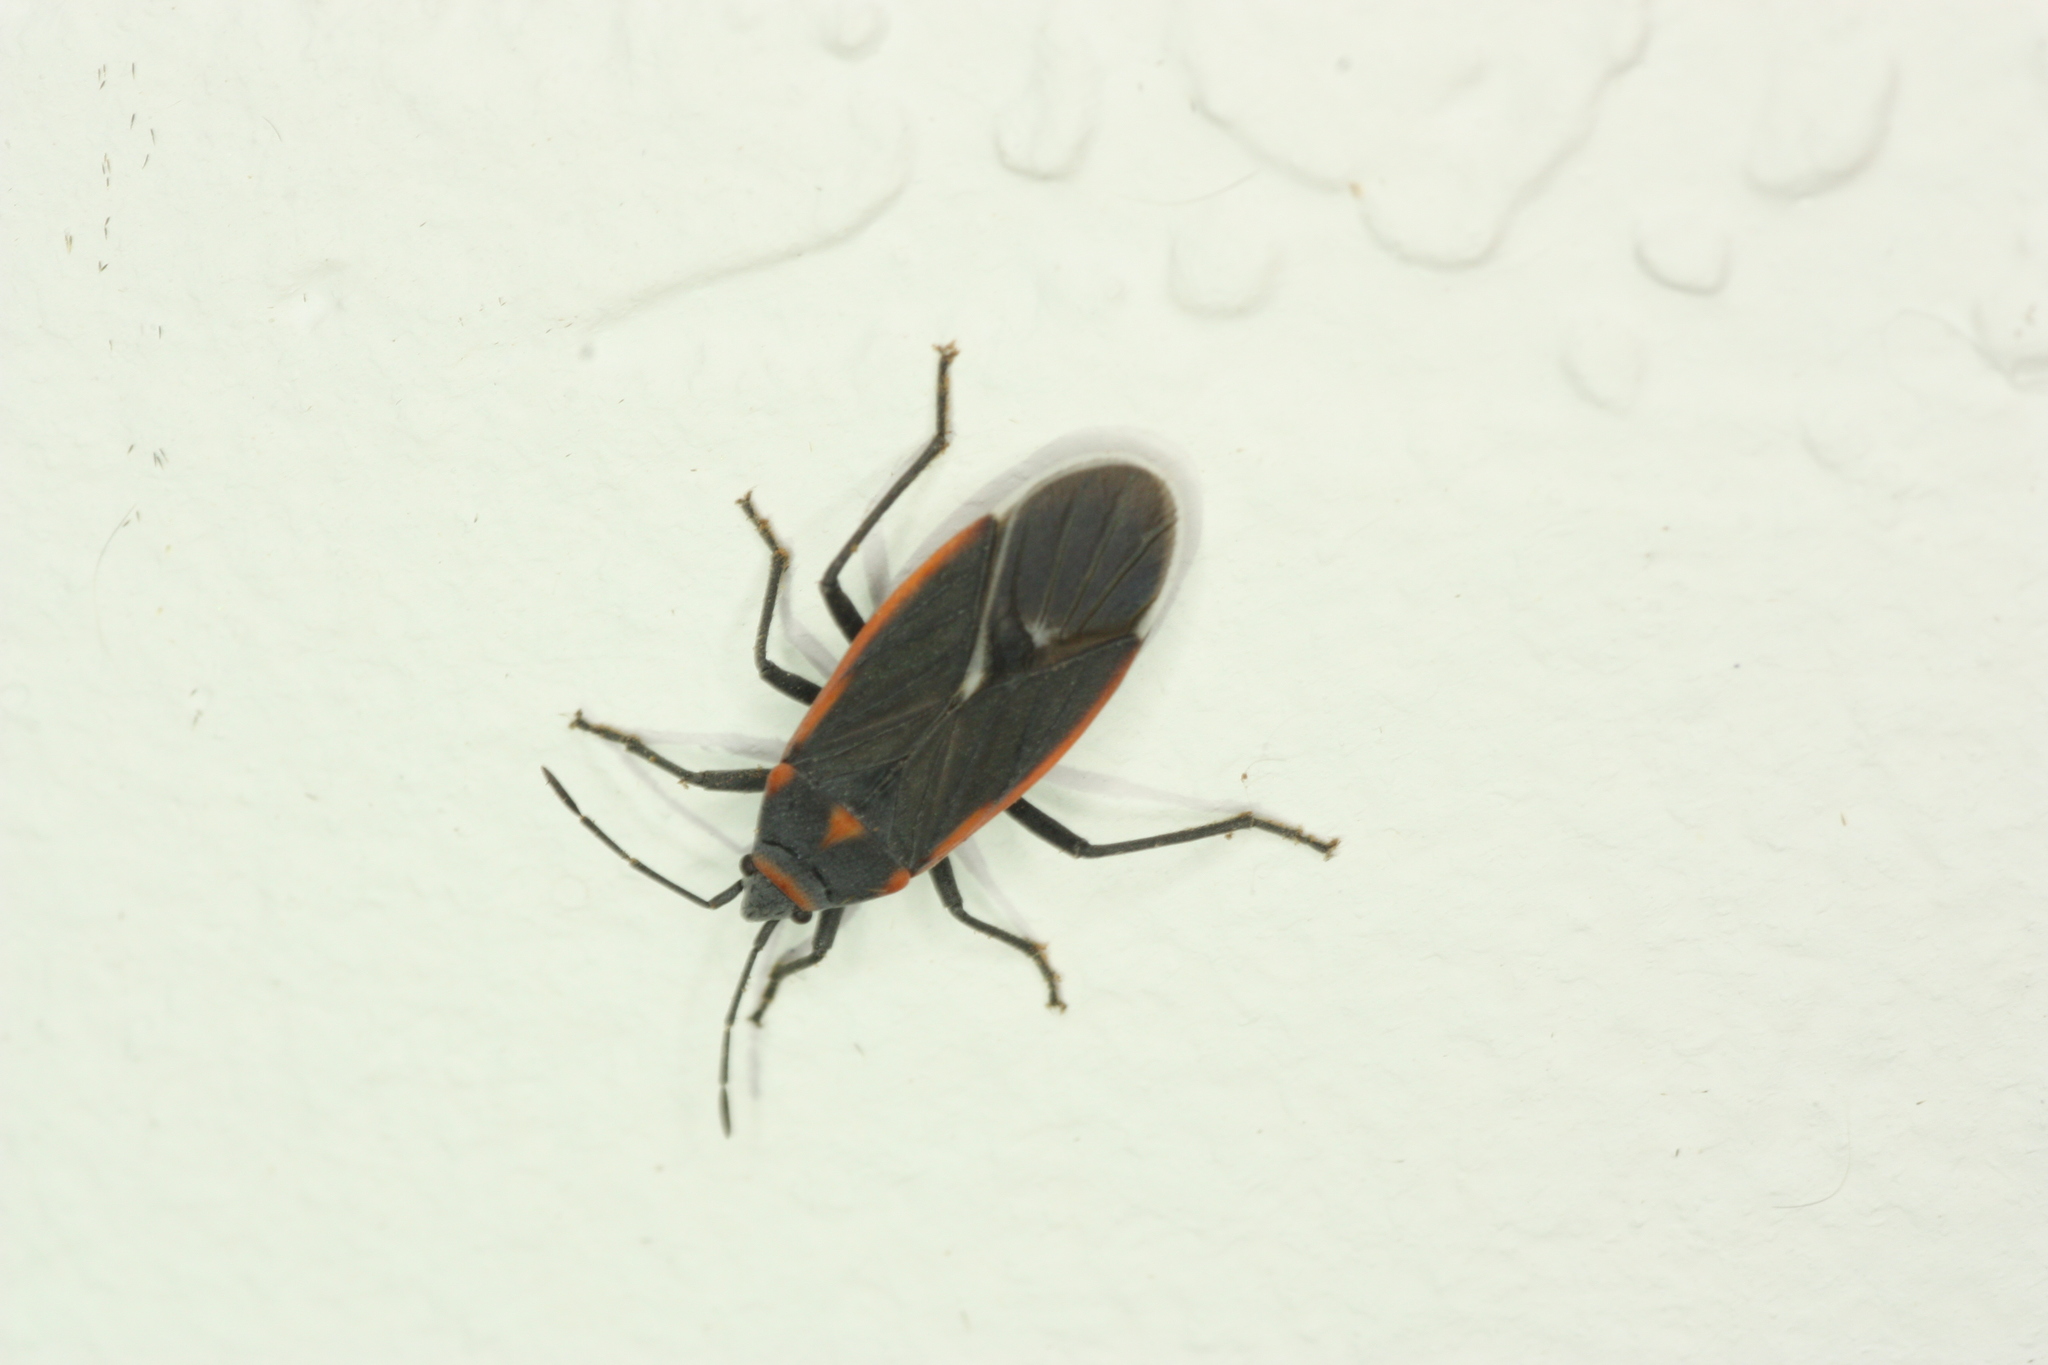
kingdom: Animalia
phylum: Arthropoda
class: Insecta
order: Hemiptera
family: Lygaeidae
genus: Melacoryphus
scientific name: Melacoryphus lateralis
